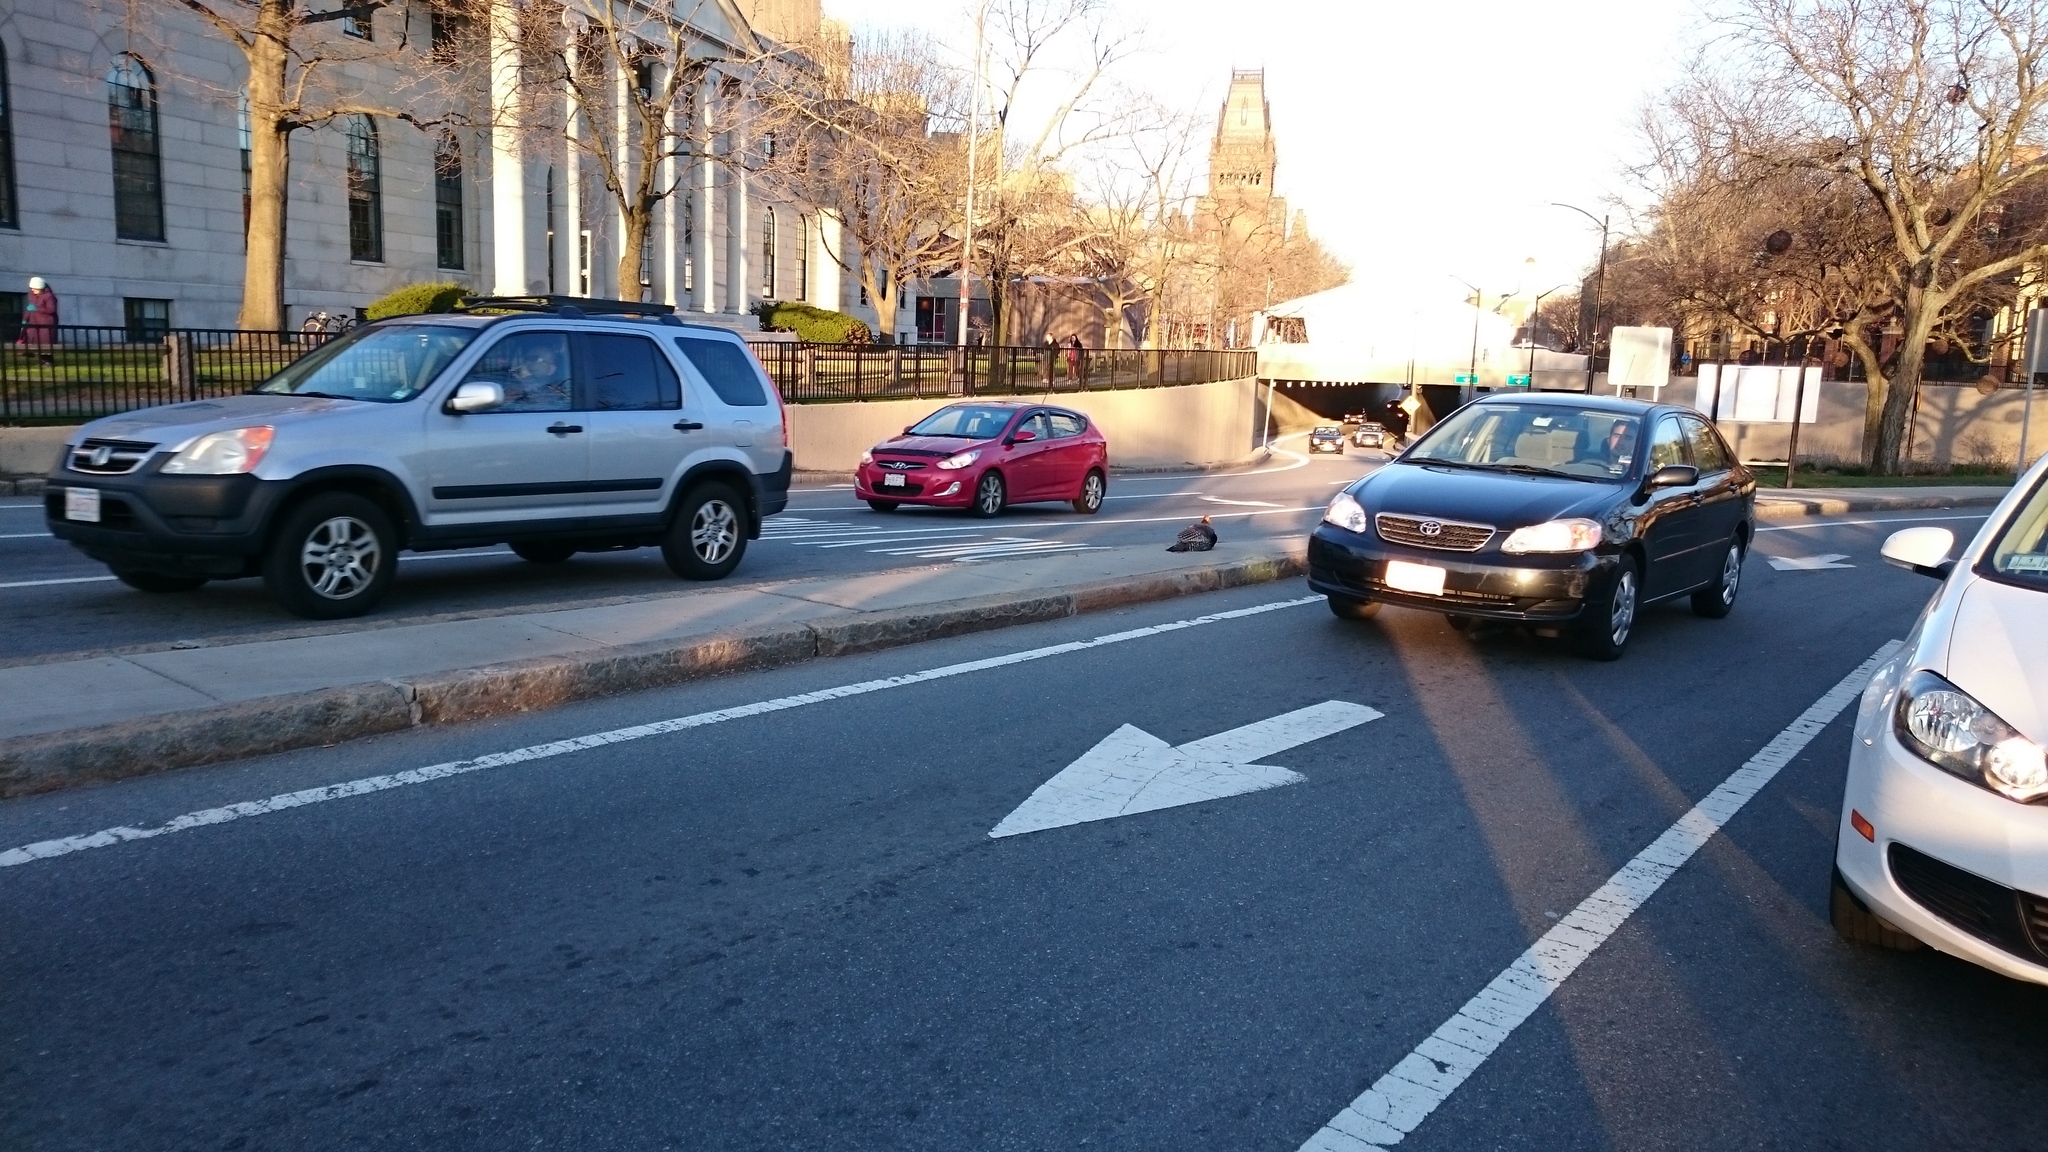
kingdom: Animalia
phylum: Chordata
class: Aves
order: Galliformes
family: Phasianidae
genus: Meleagris
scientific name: Meleagris gallopavo
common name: Wild turkey
